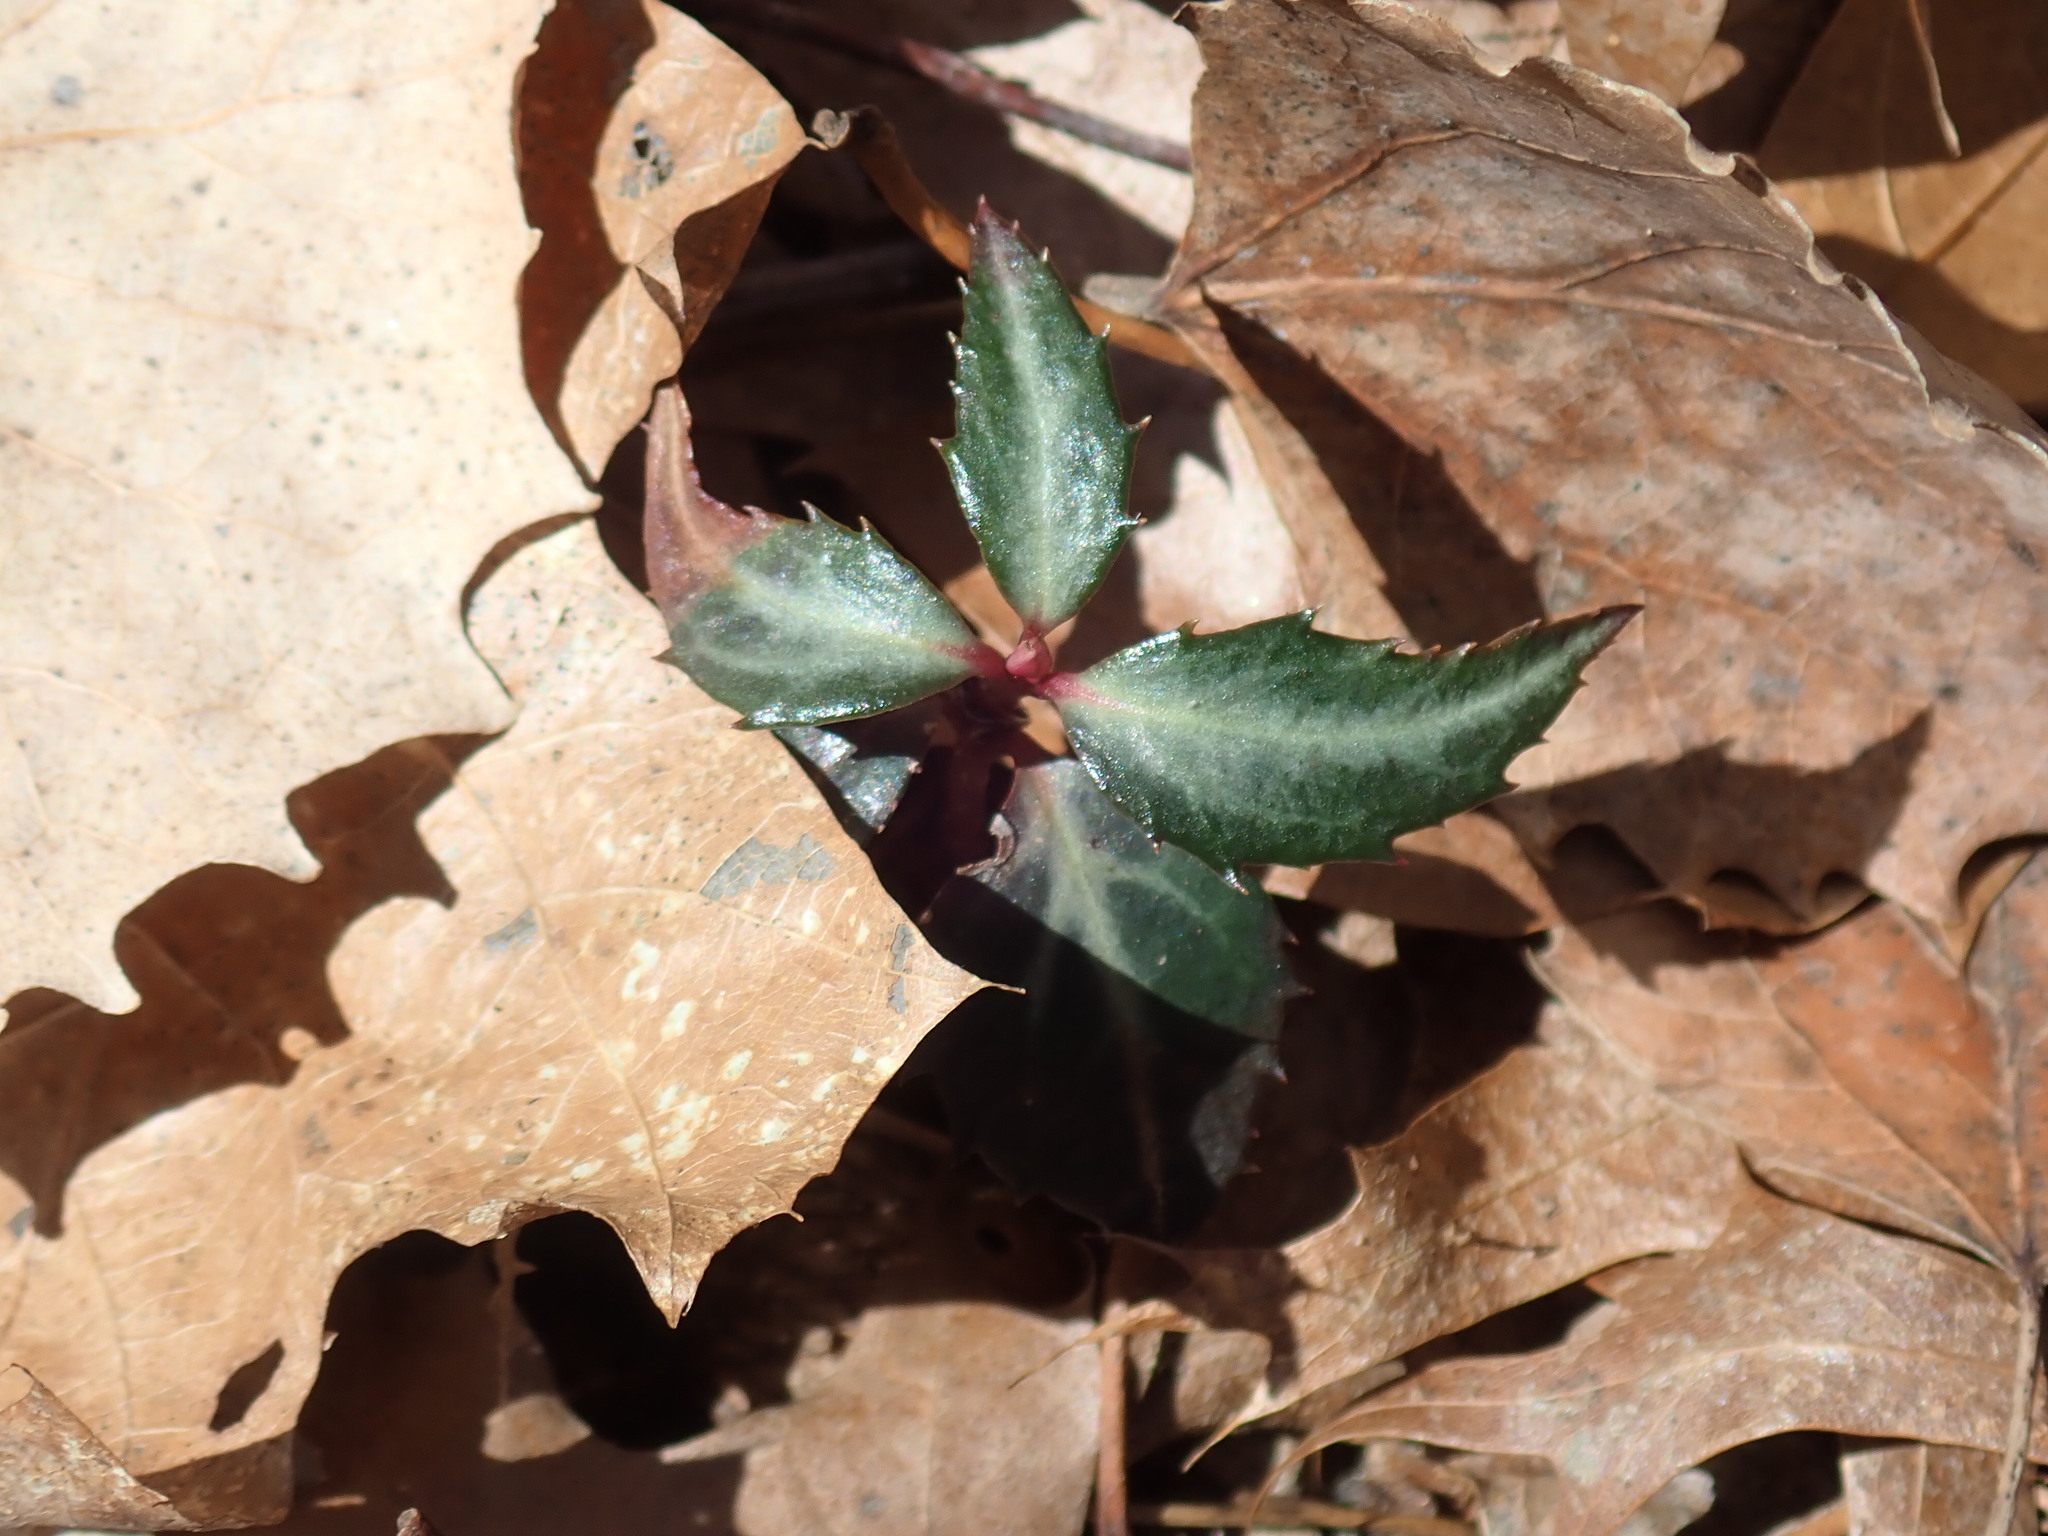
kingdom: Plantae
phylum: Tracheophyta
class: Magnoliopsida
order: Ericales
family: Ericaceae
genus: Chimaphila
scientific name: Chimaphila maculata
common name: Spotted pipsissewa
